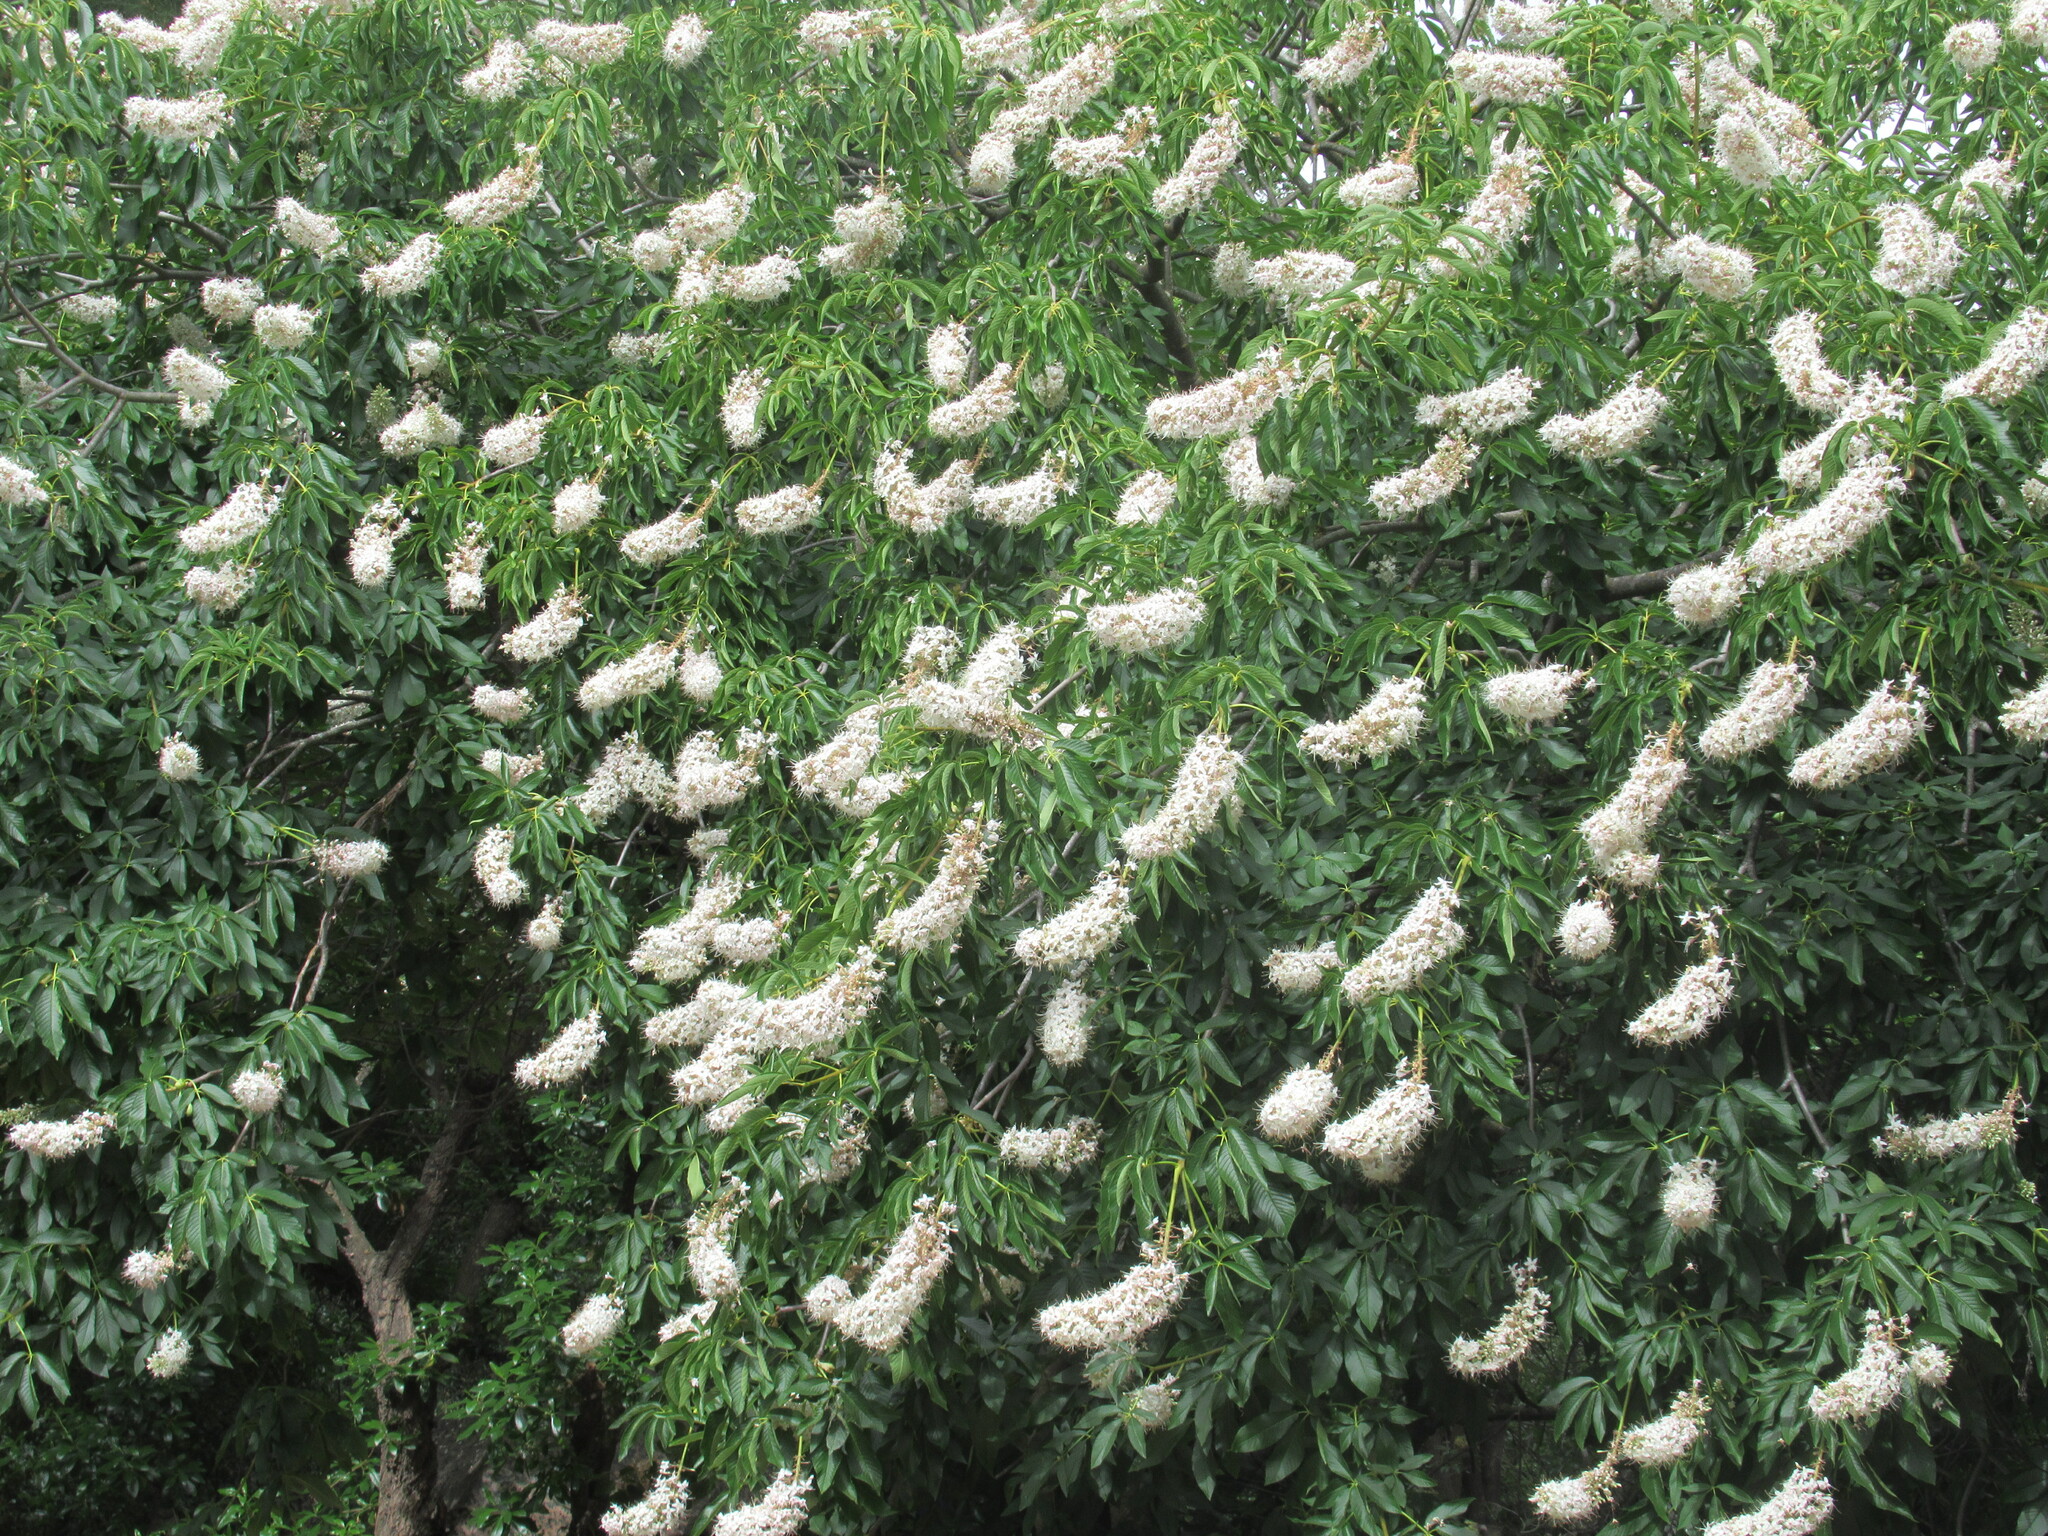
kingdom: Plantae
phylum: Tracheophyta
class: Magnoliopsida
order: Sapindales
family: Sapindaceae
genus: Aesculus
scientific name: Aesculus californica
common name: California buckeye
